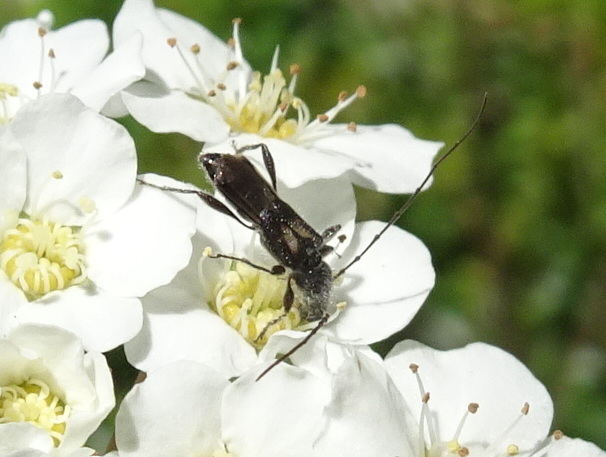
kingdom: Animalia
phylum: Arthropoda
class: Insecta
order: Coleoptera
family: Cerambycidae
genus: Molorchus
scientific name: Molorchus bimaculatus
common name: Bimaculate longhorn beetle
